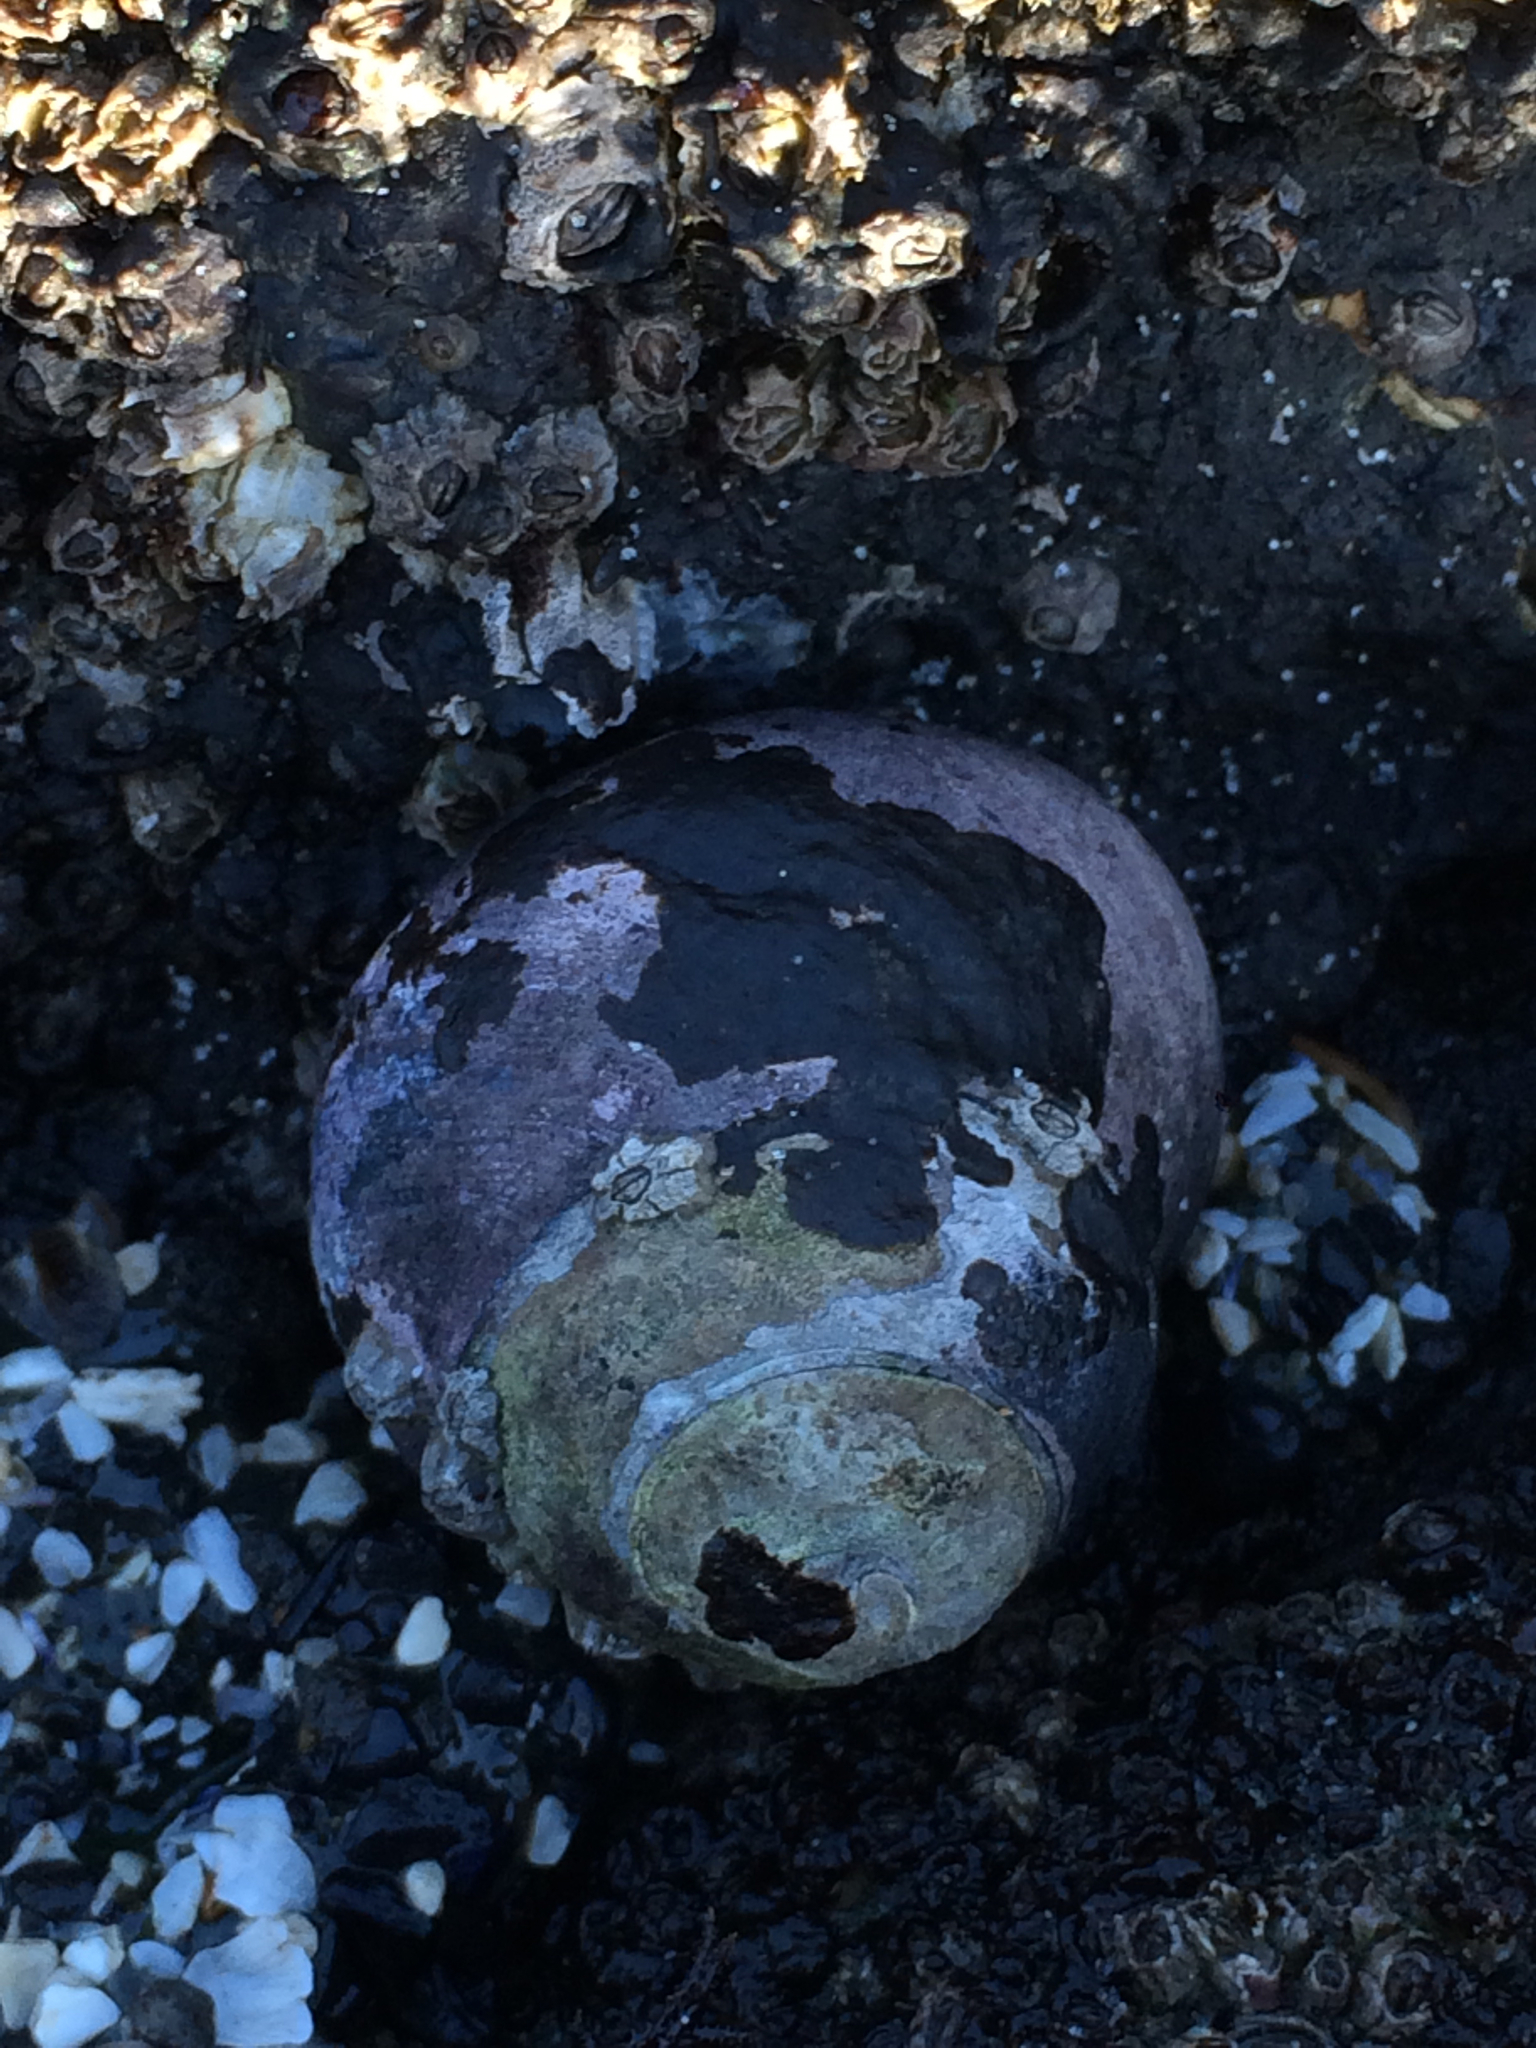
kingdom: Animalia
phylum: Mollusca
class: Gastropoda
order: Trochida
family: Tegulidae
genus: Tegula
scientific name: Tegula funebralis
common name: Black tegula
